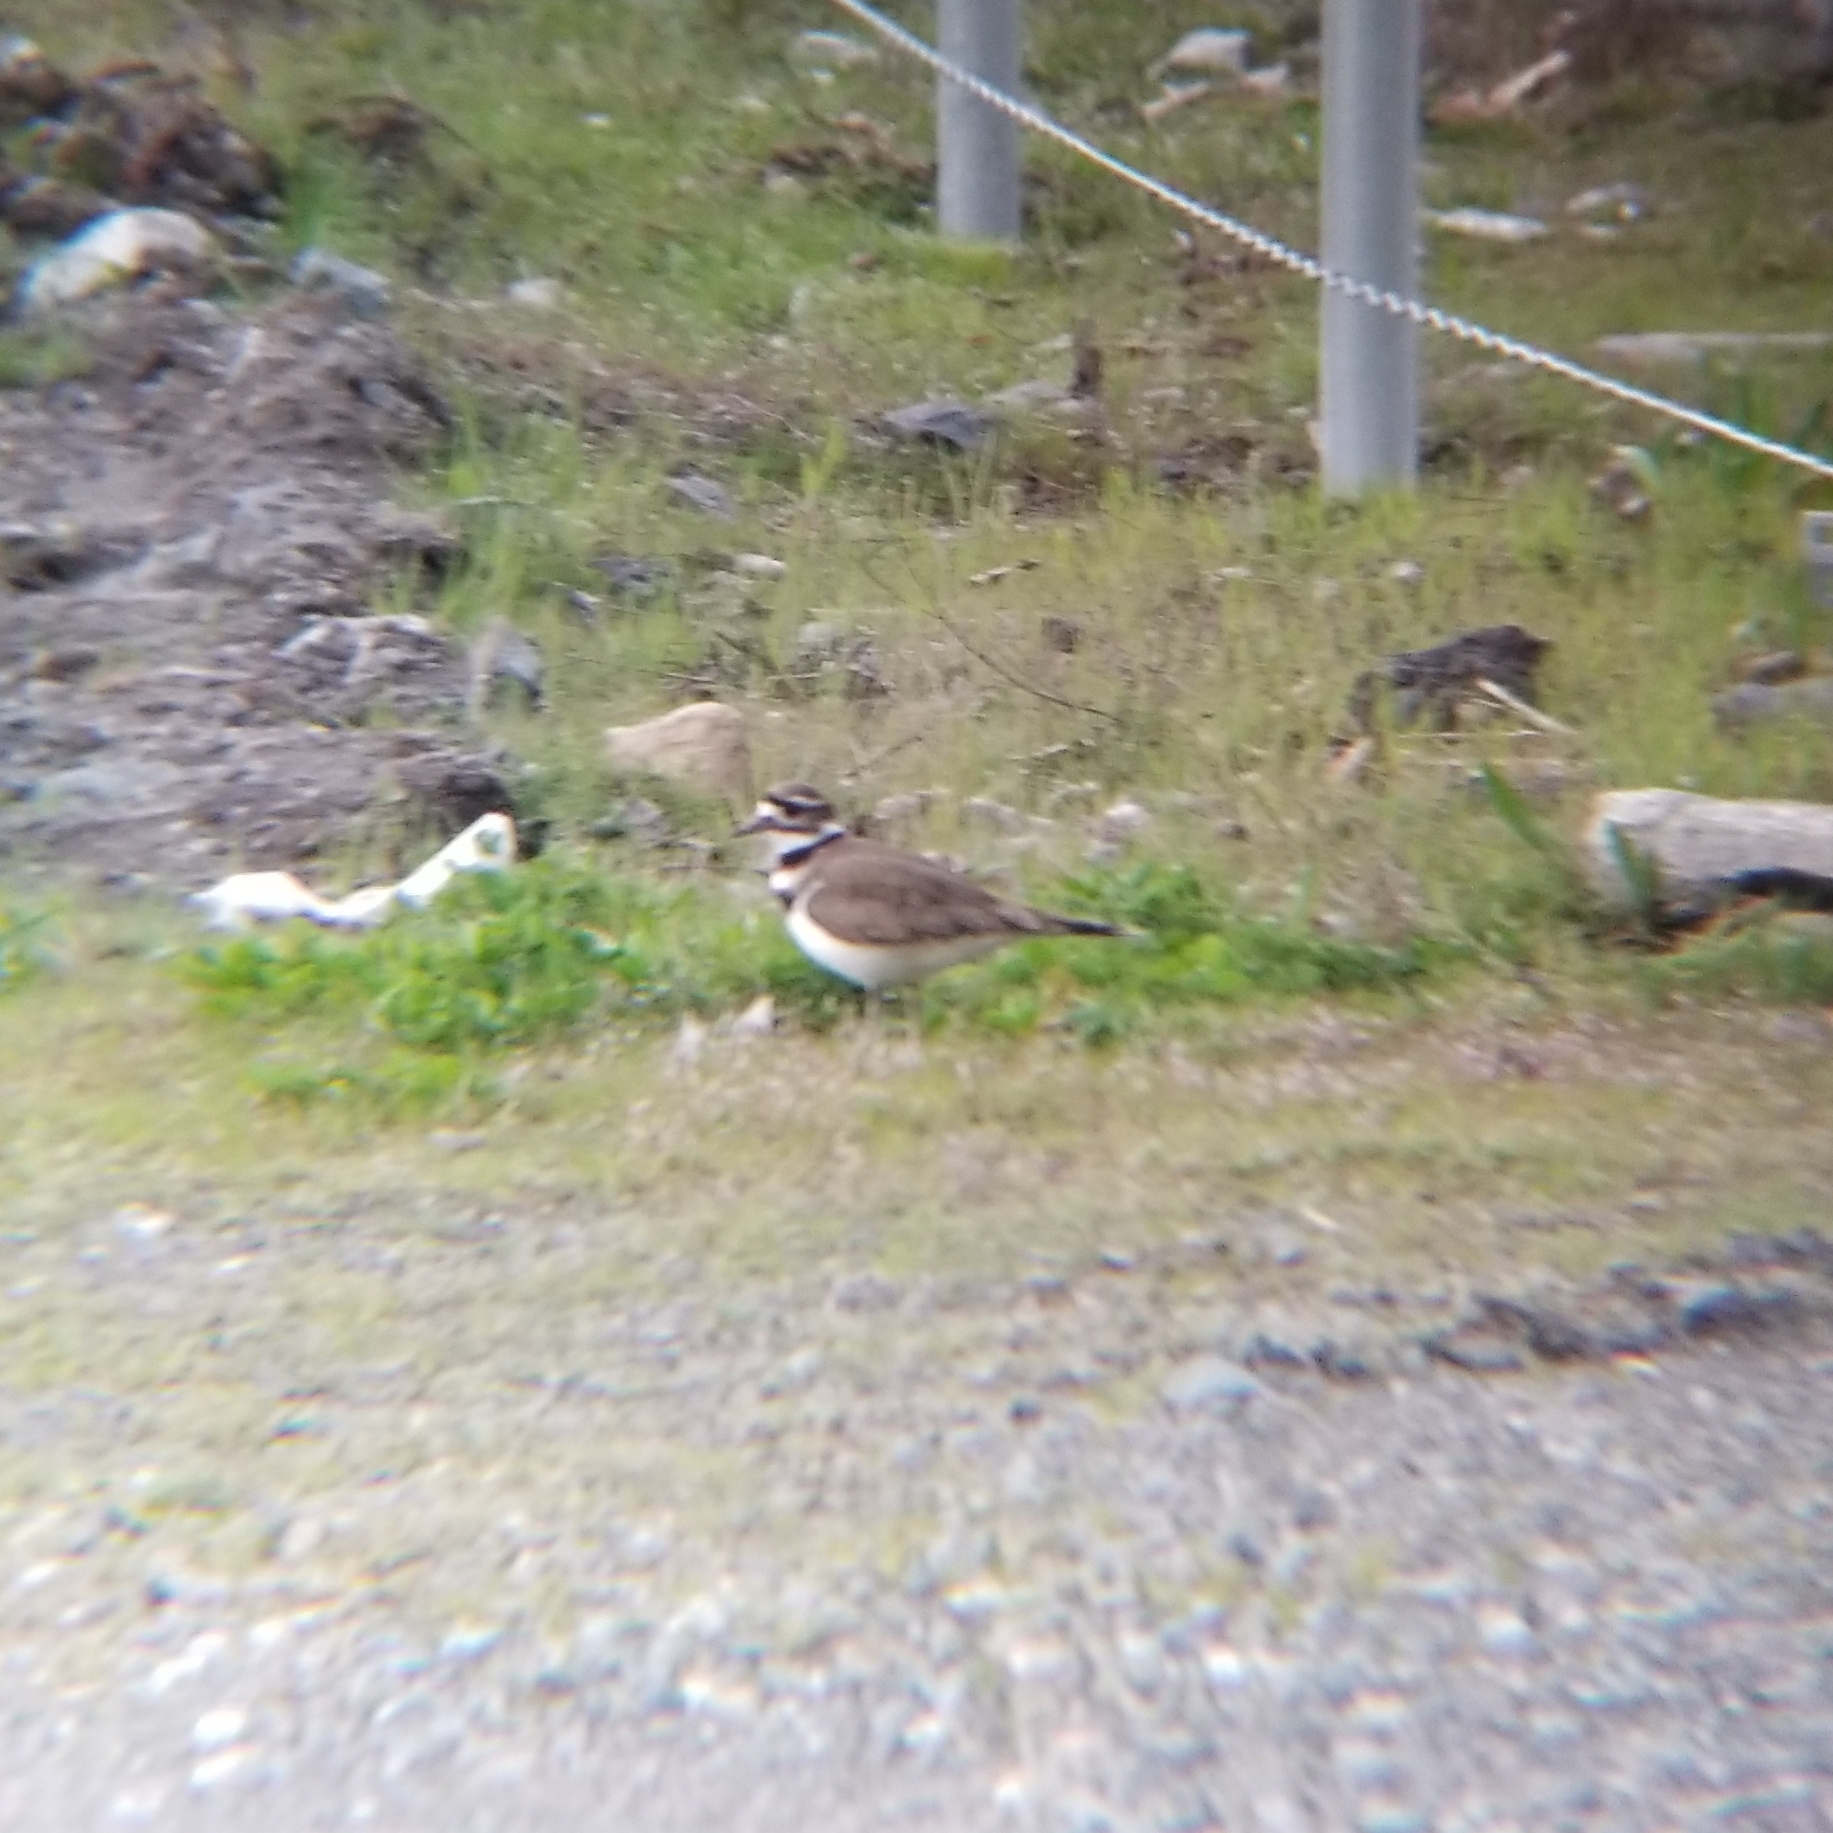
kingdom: Animalia
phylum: Chordata
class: Aves
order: Charadriiformes
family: Charadriidae
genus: Charadrius
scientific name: Charadrius vociferus
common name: Killdeer
